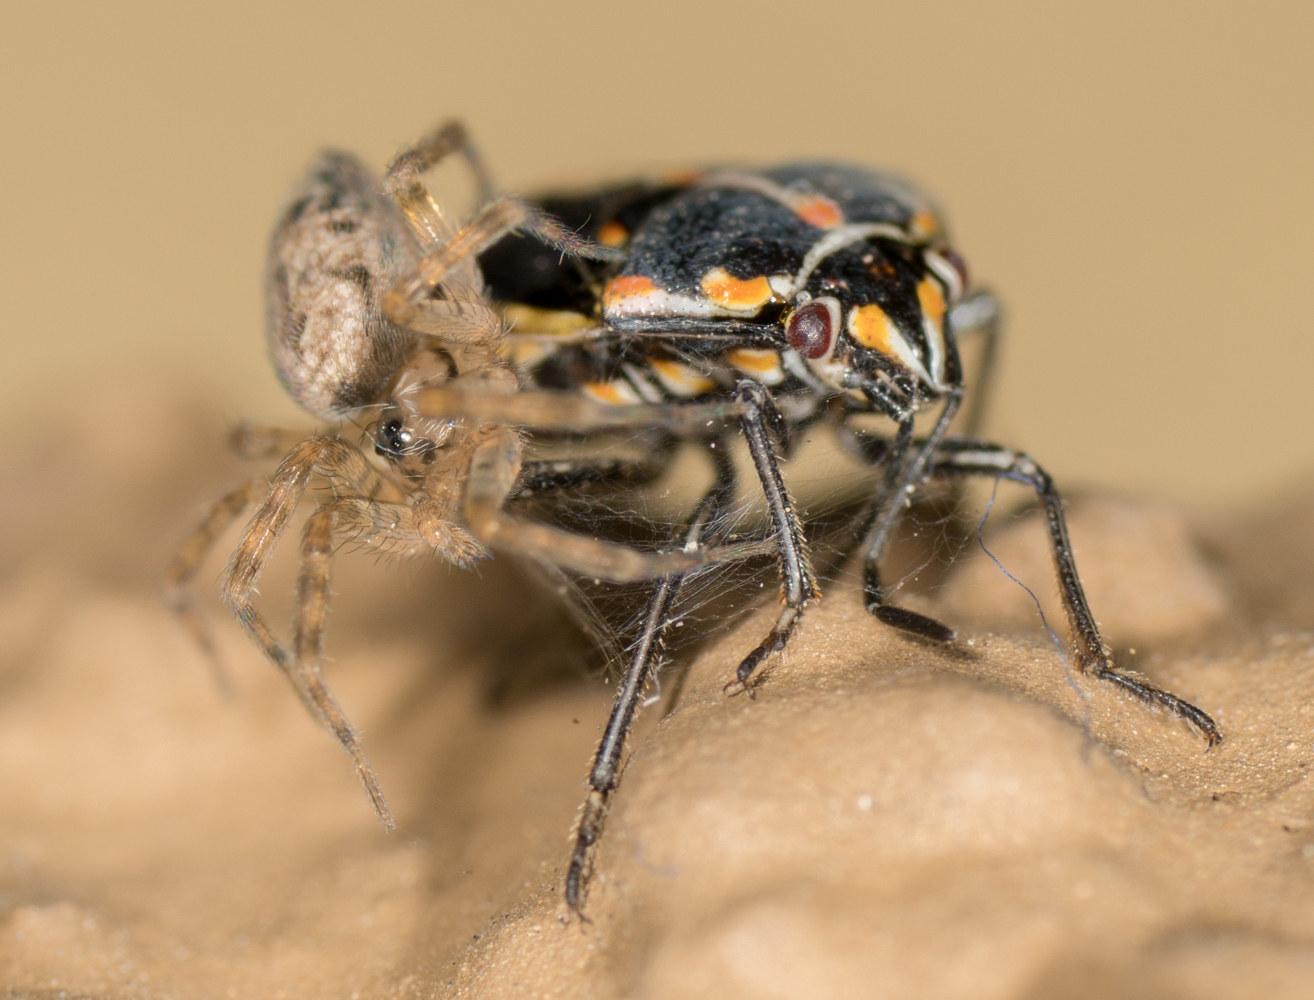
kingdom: Animalia
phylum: Arthropoda
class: Arachnida
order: Araneae
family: Oecobiidae
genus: Oecobius
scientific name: Oecobius navus
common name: Flatmesh weaver
